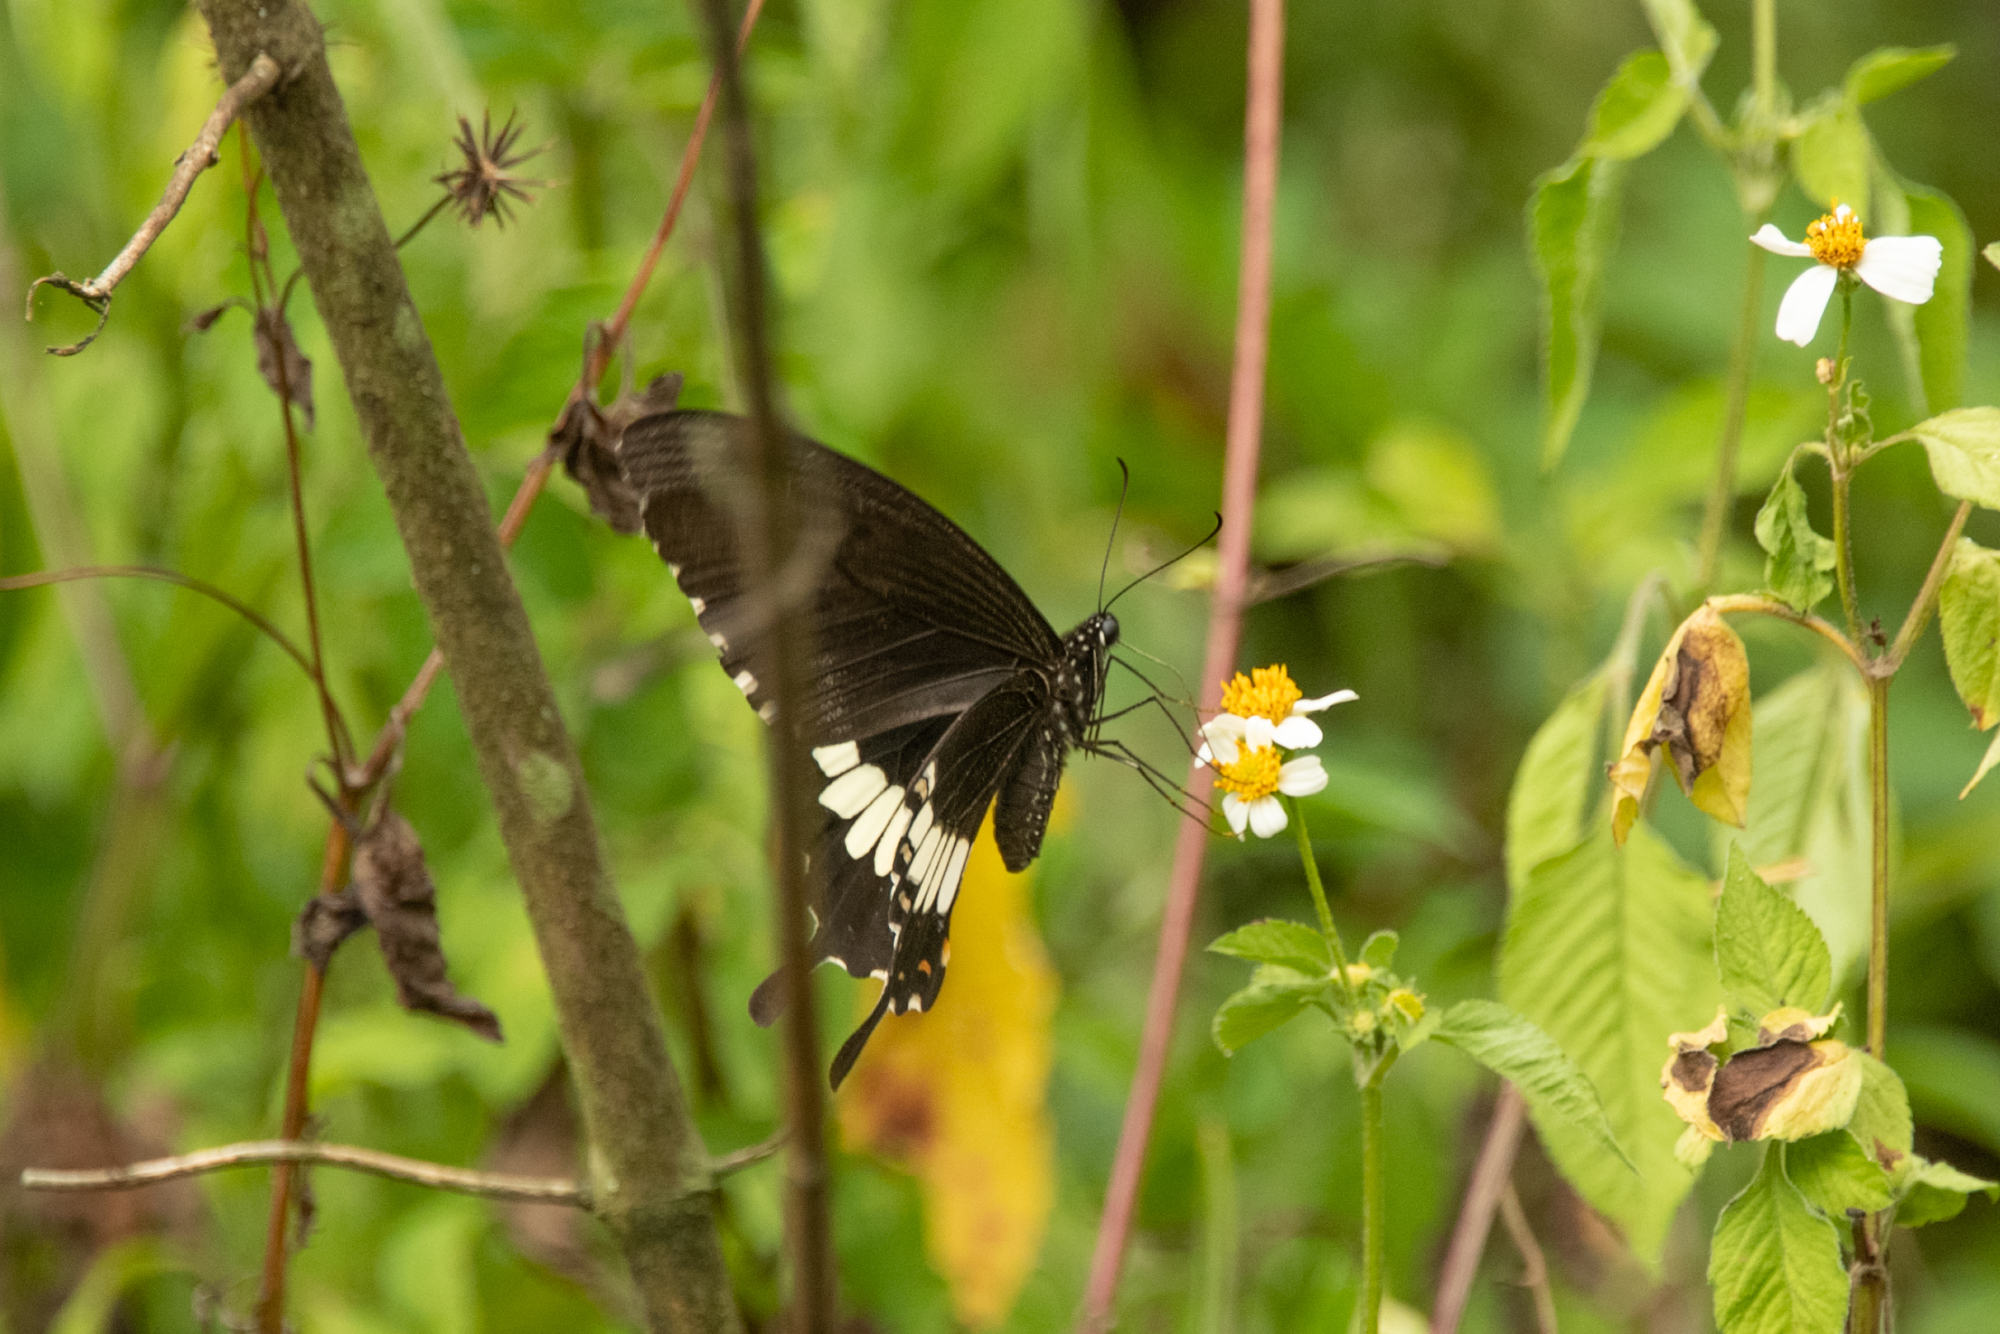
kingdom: Animalia
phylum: Arthropoda
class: Insecta
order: Lepidoptera
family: Papilionidae
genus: Papilio
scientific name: Papilio polytes
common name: Common mormon
